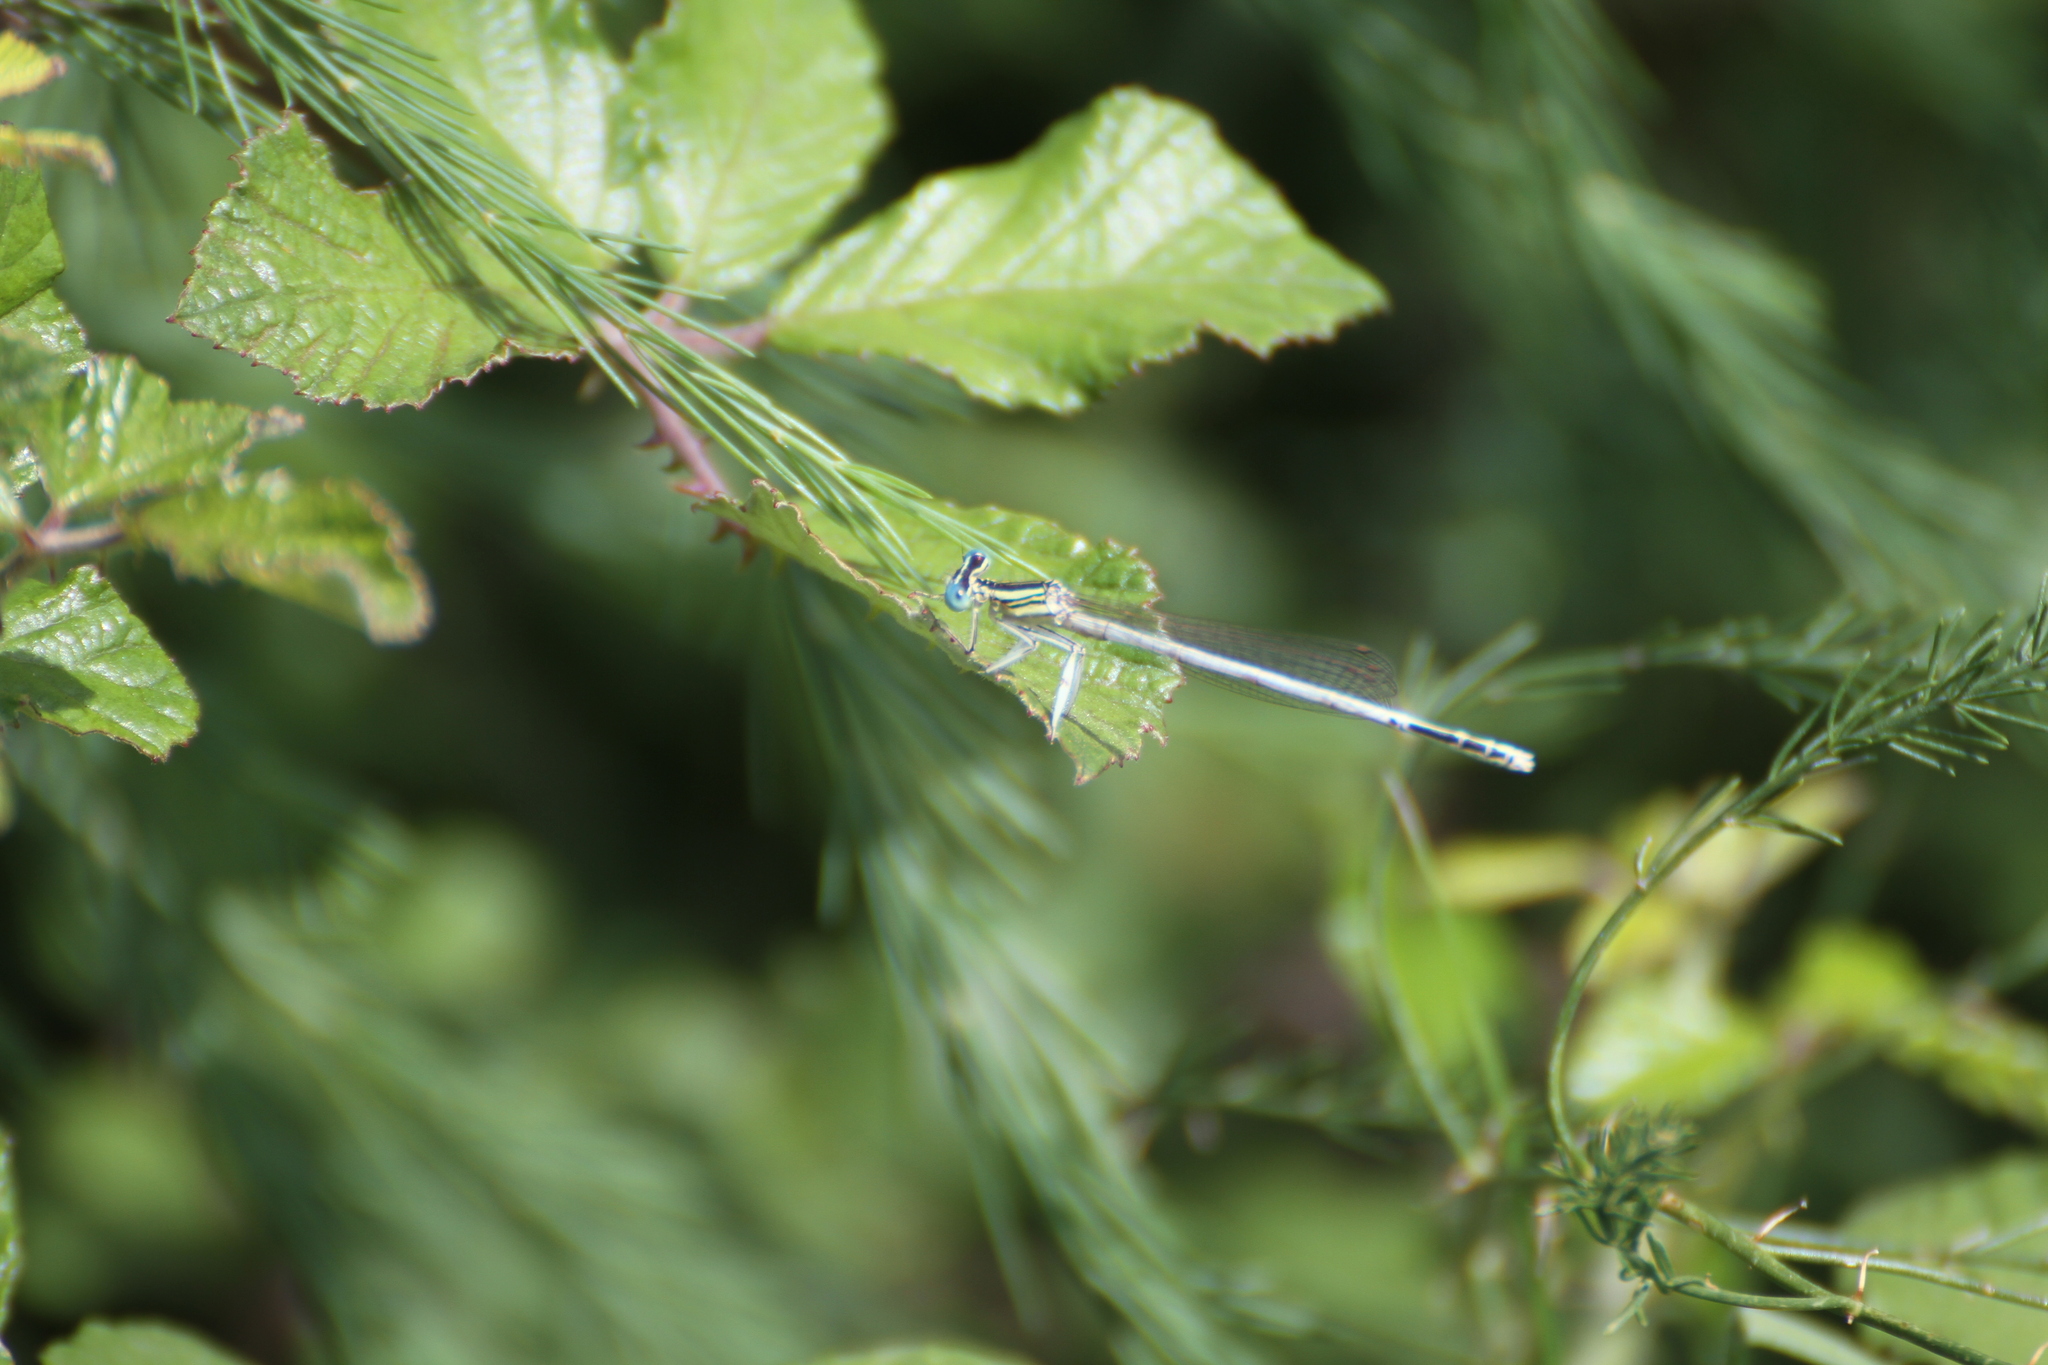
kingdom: Animalia
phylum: Arthropoda
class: Insecta
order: Odonata
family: Platycnemididae
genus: Platycnemis
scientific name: Platycnemis latipes
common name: White featherleg
